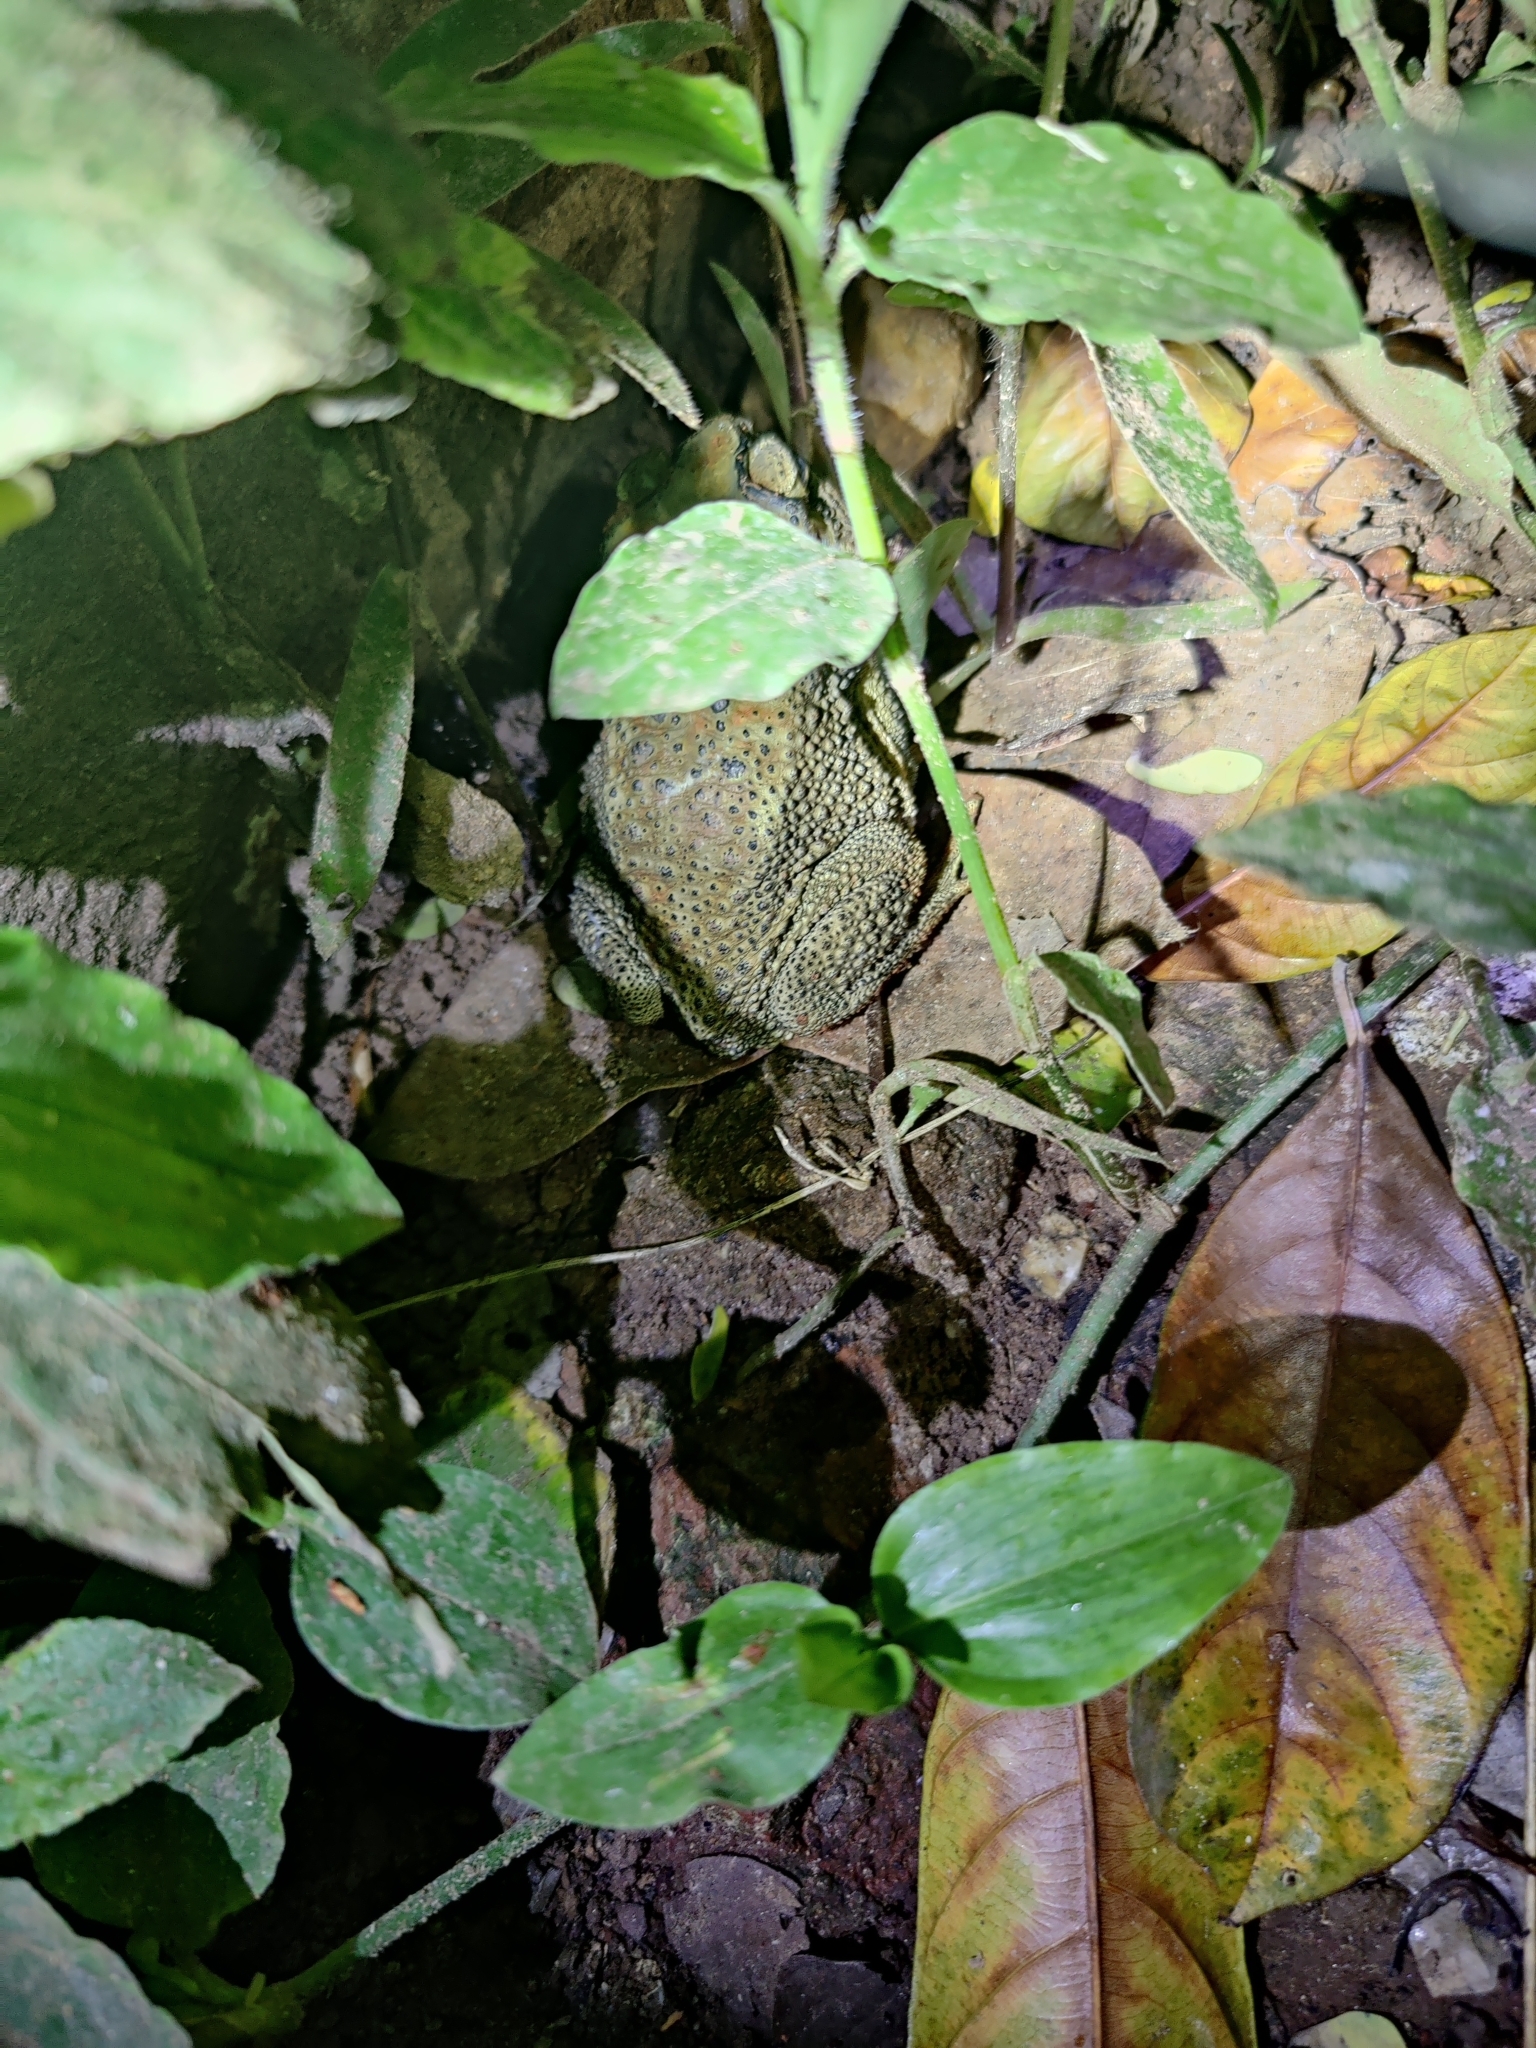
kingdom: Animalia
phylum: Chordata
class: Amphibia
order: Anura
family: Bufonidae
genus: Duttaphrynus
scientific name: Duttaphrynus melanostictus
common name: Common sunda toad
